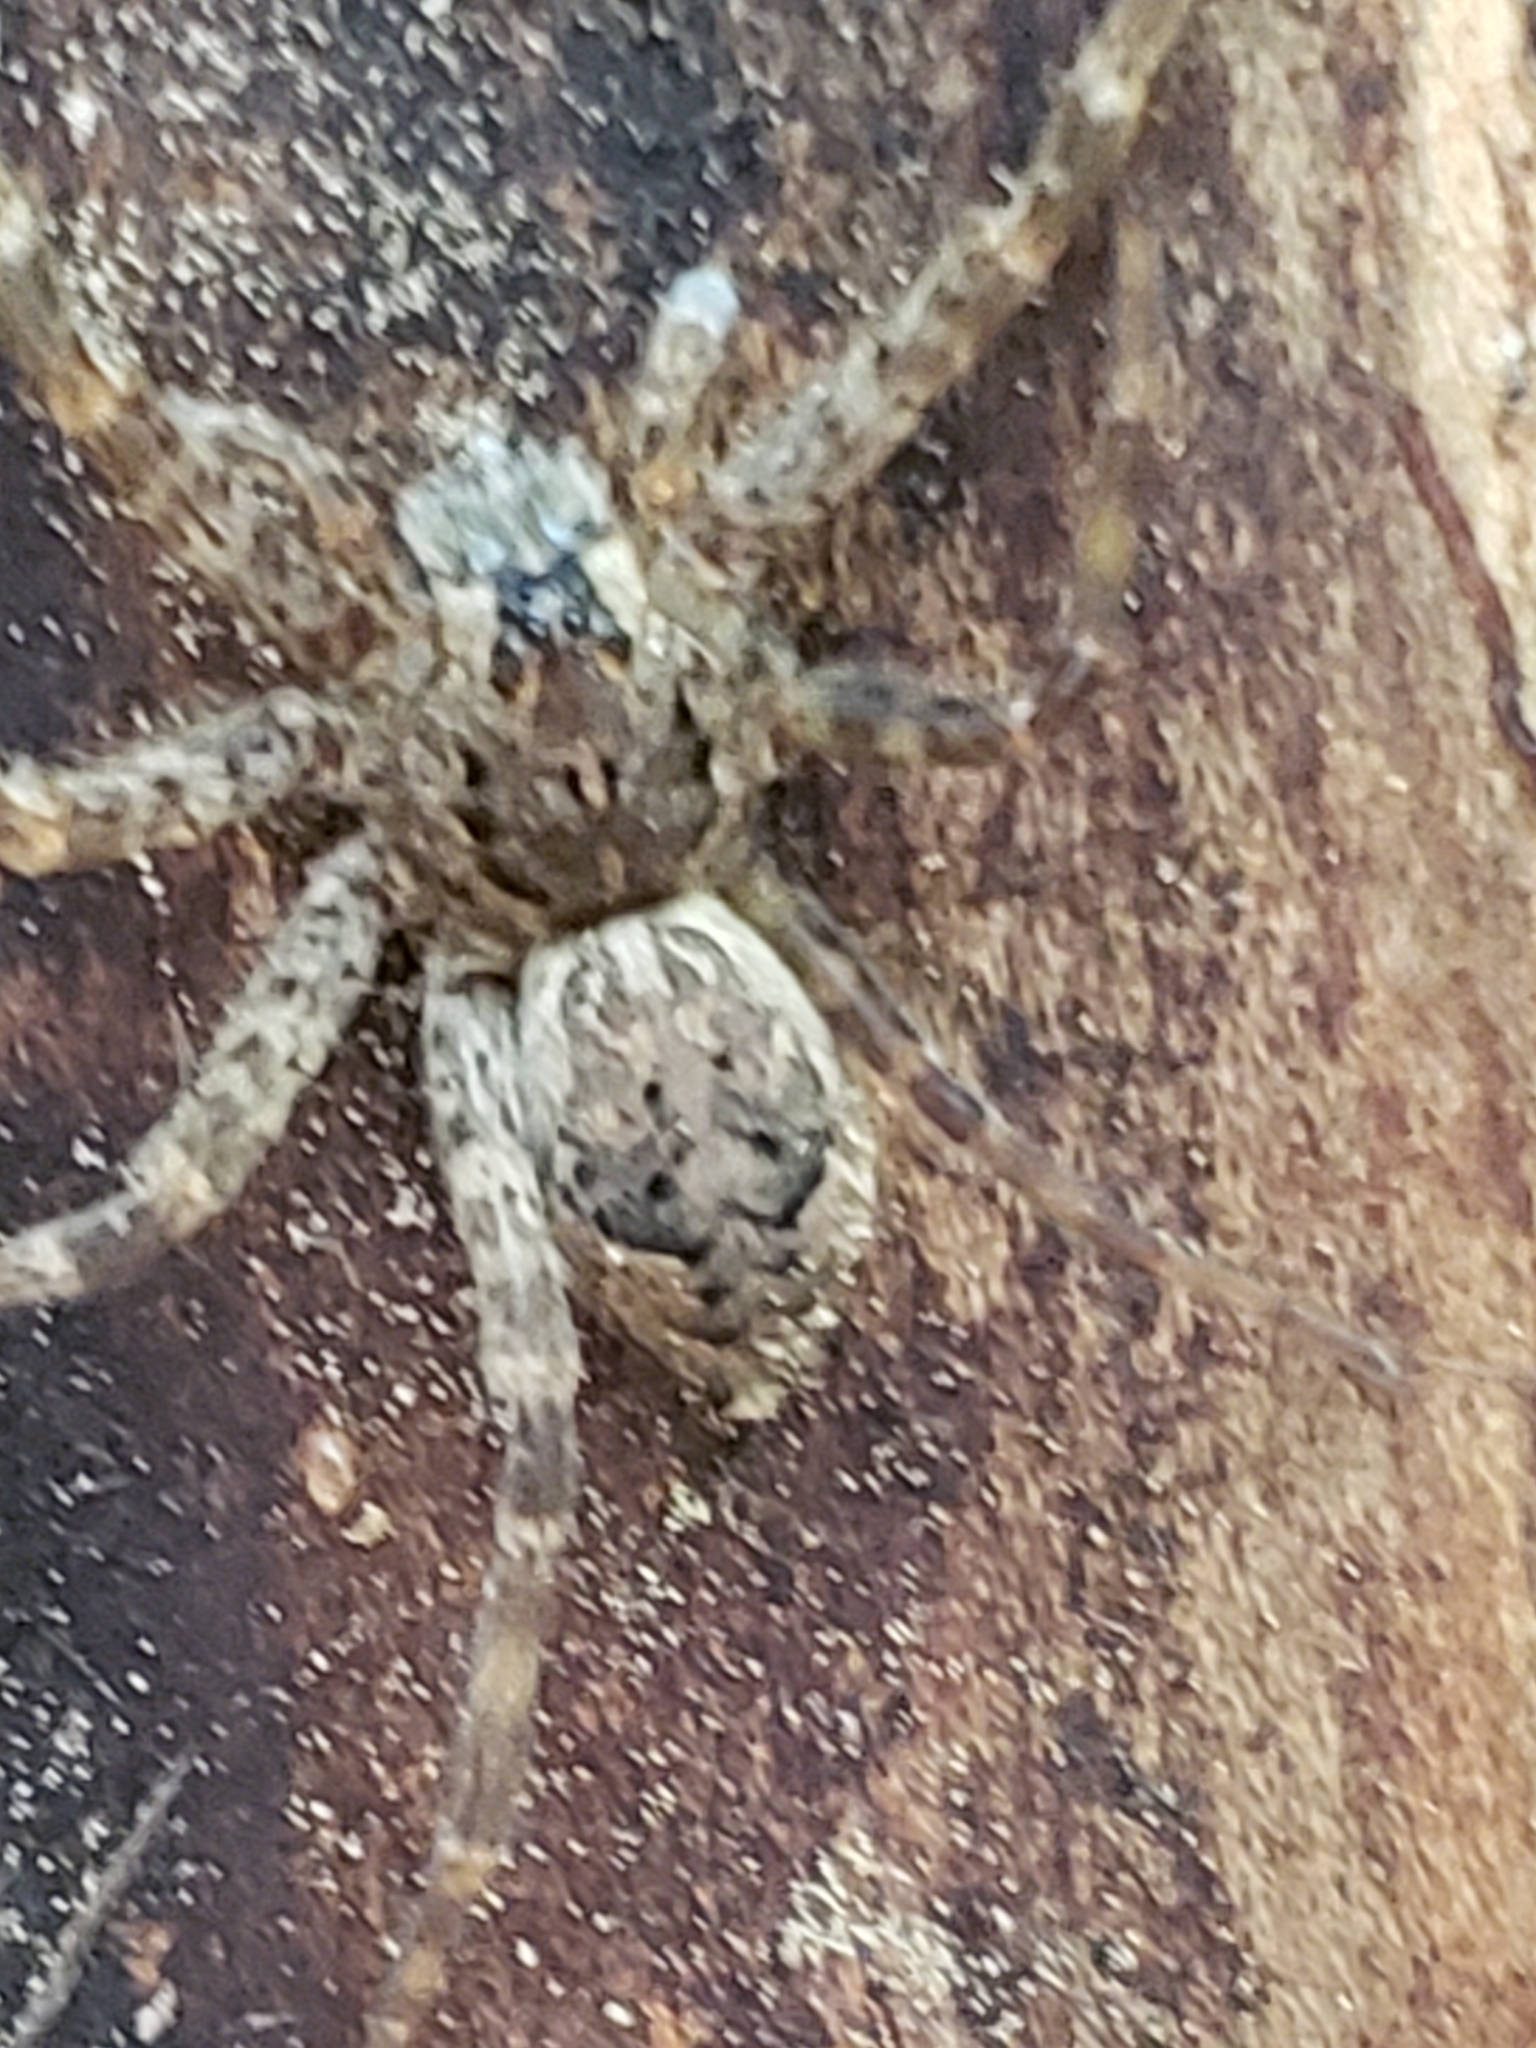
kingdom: Animalia
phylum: Arthropoda
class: Arachnida
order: Araneae
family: Pisauridae
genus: Dolomedes
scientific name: Dolomedes tenebrosus
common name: Dark fishing spider
